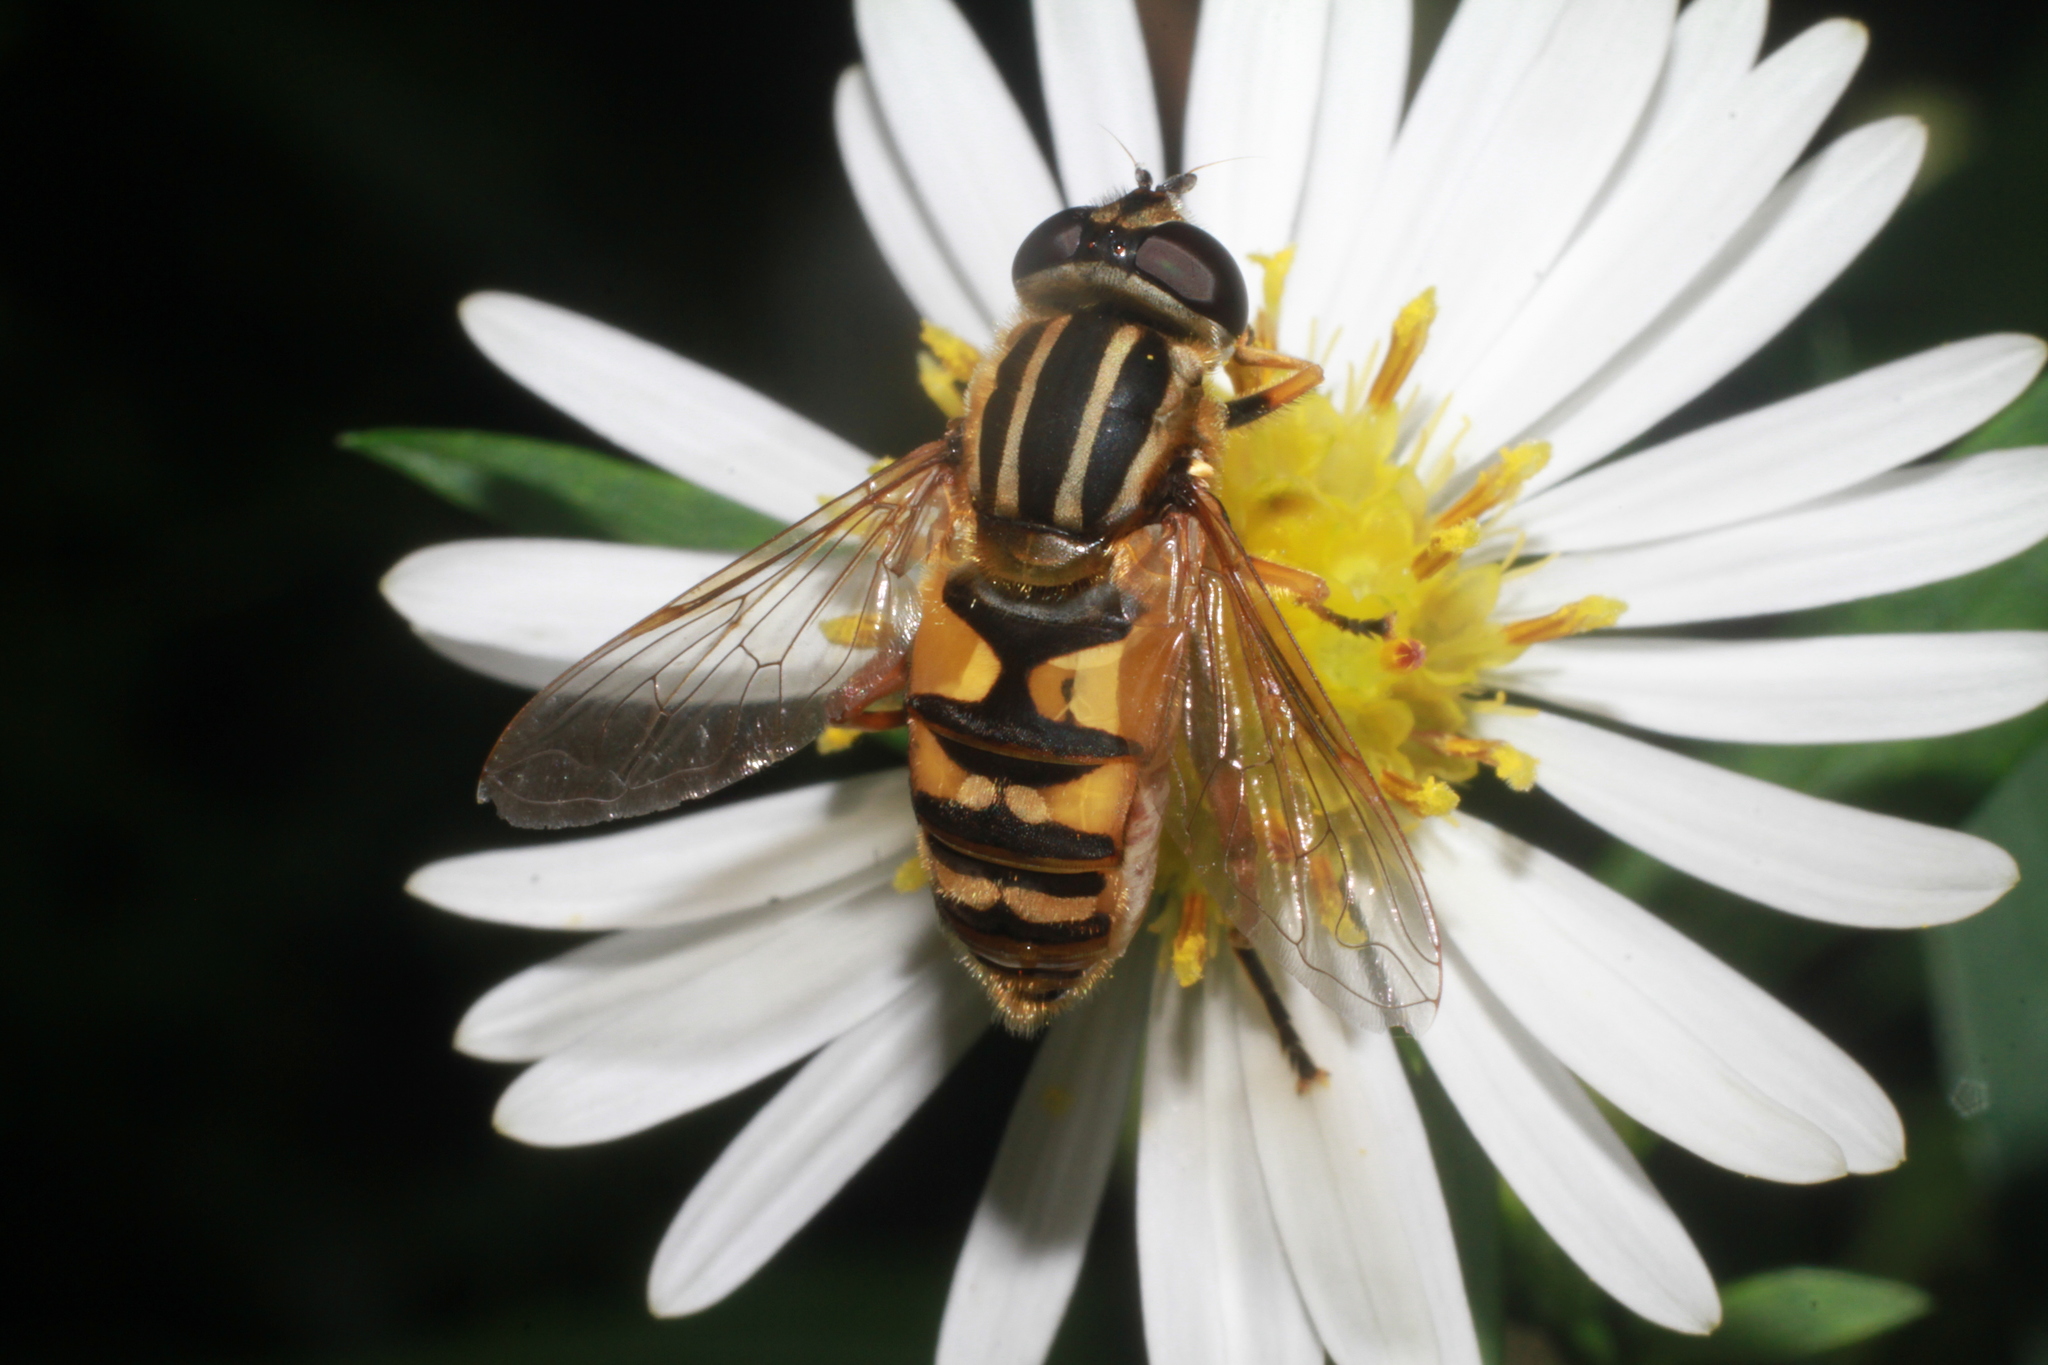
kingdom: Animalia
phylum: Arthropoda
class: Insecta
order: Diptera
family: Syrphidae
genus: Helophilus
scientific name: Helophilus pendulus
